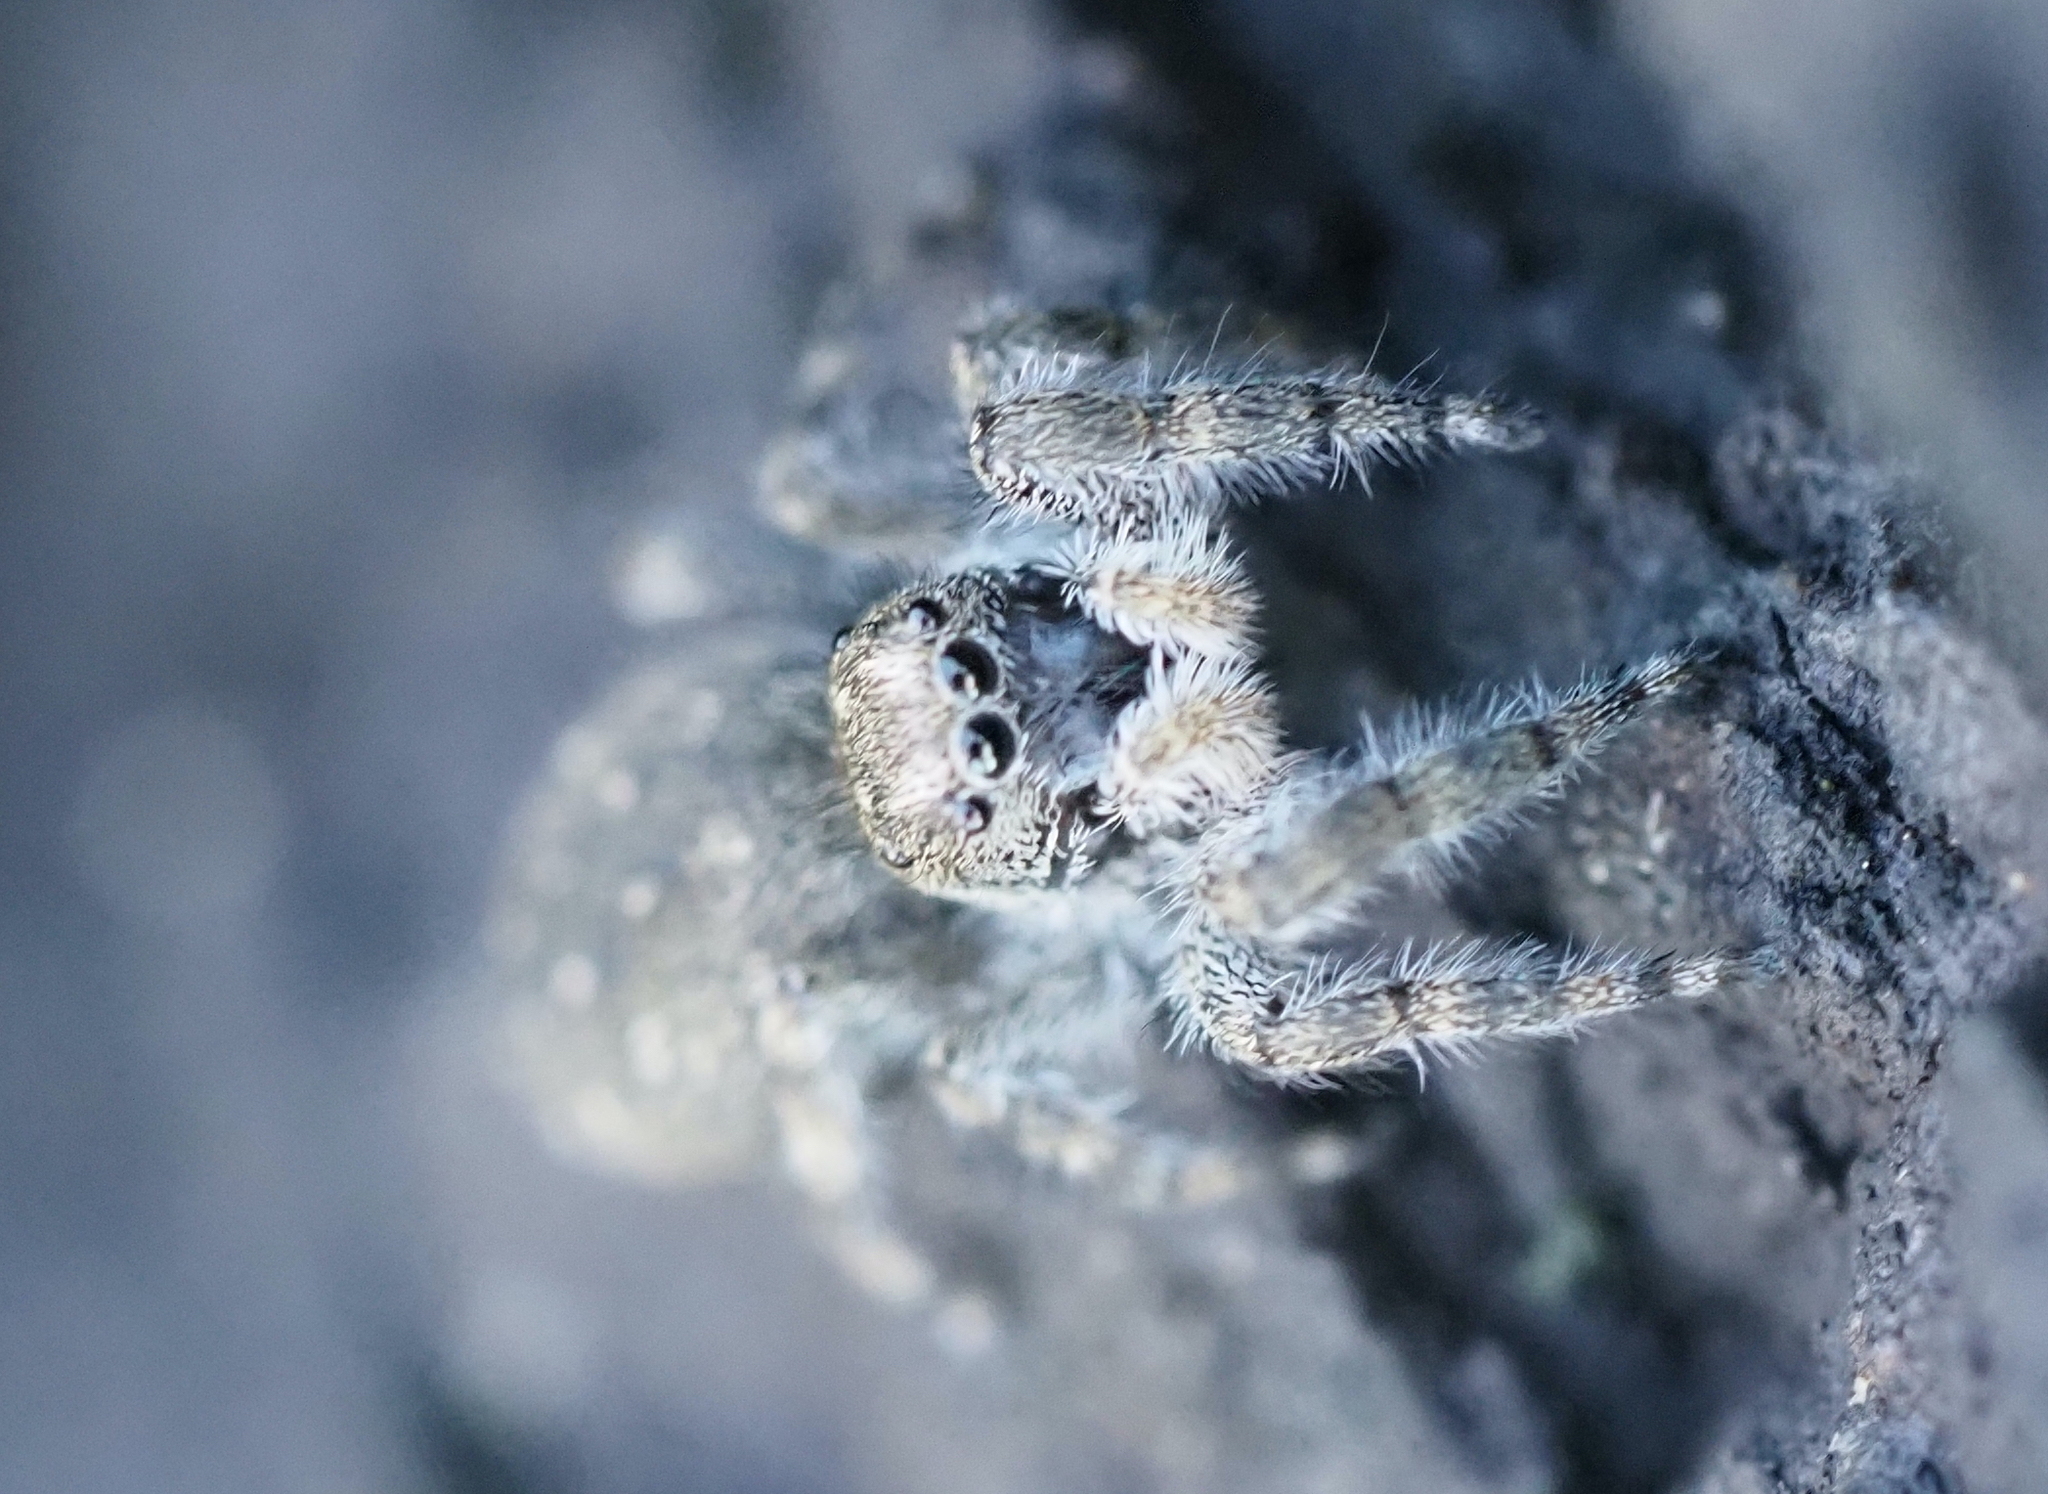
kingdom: Animalia
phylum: Arthropoda
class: Arachnida
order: Araneae
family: Salticidae
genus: Terralonus
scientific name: Terralonus californicus
